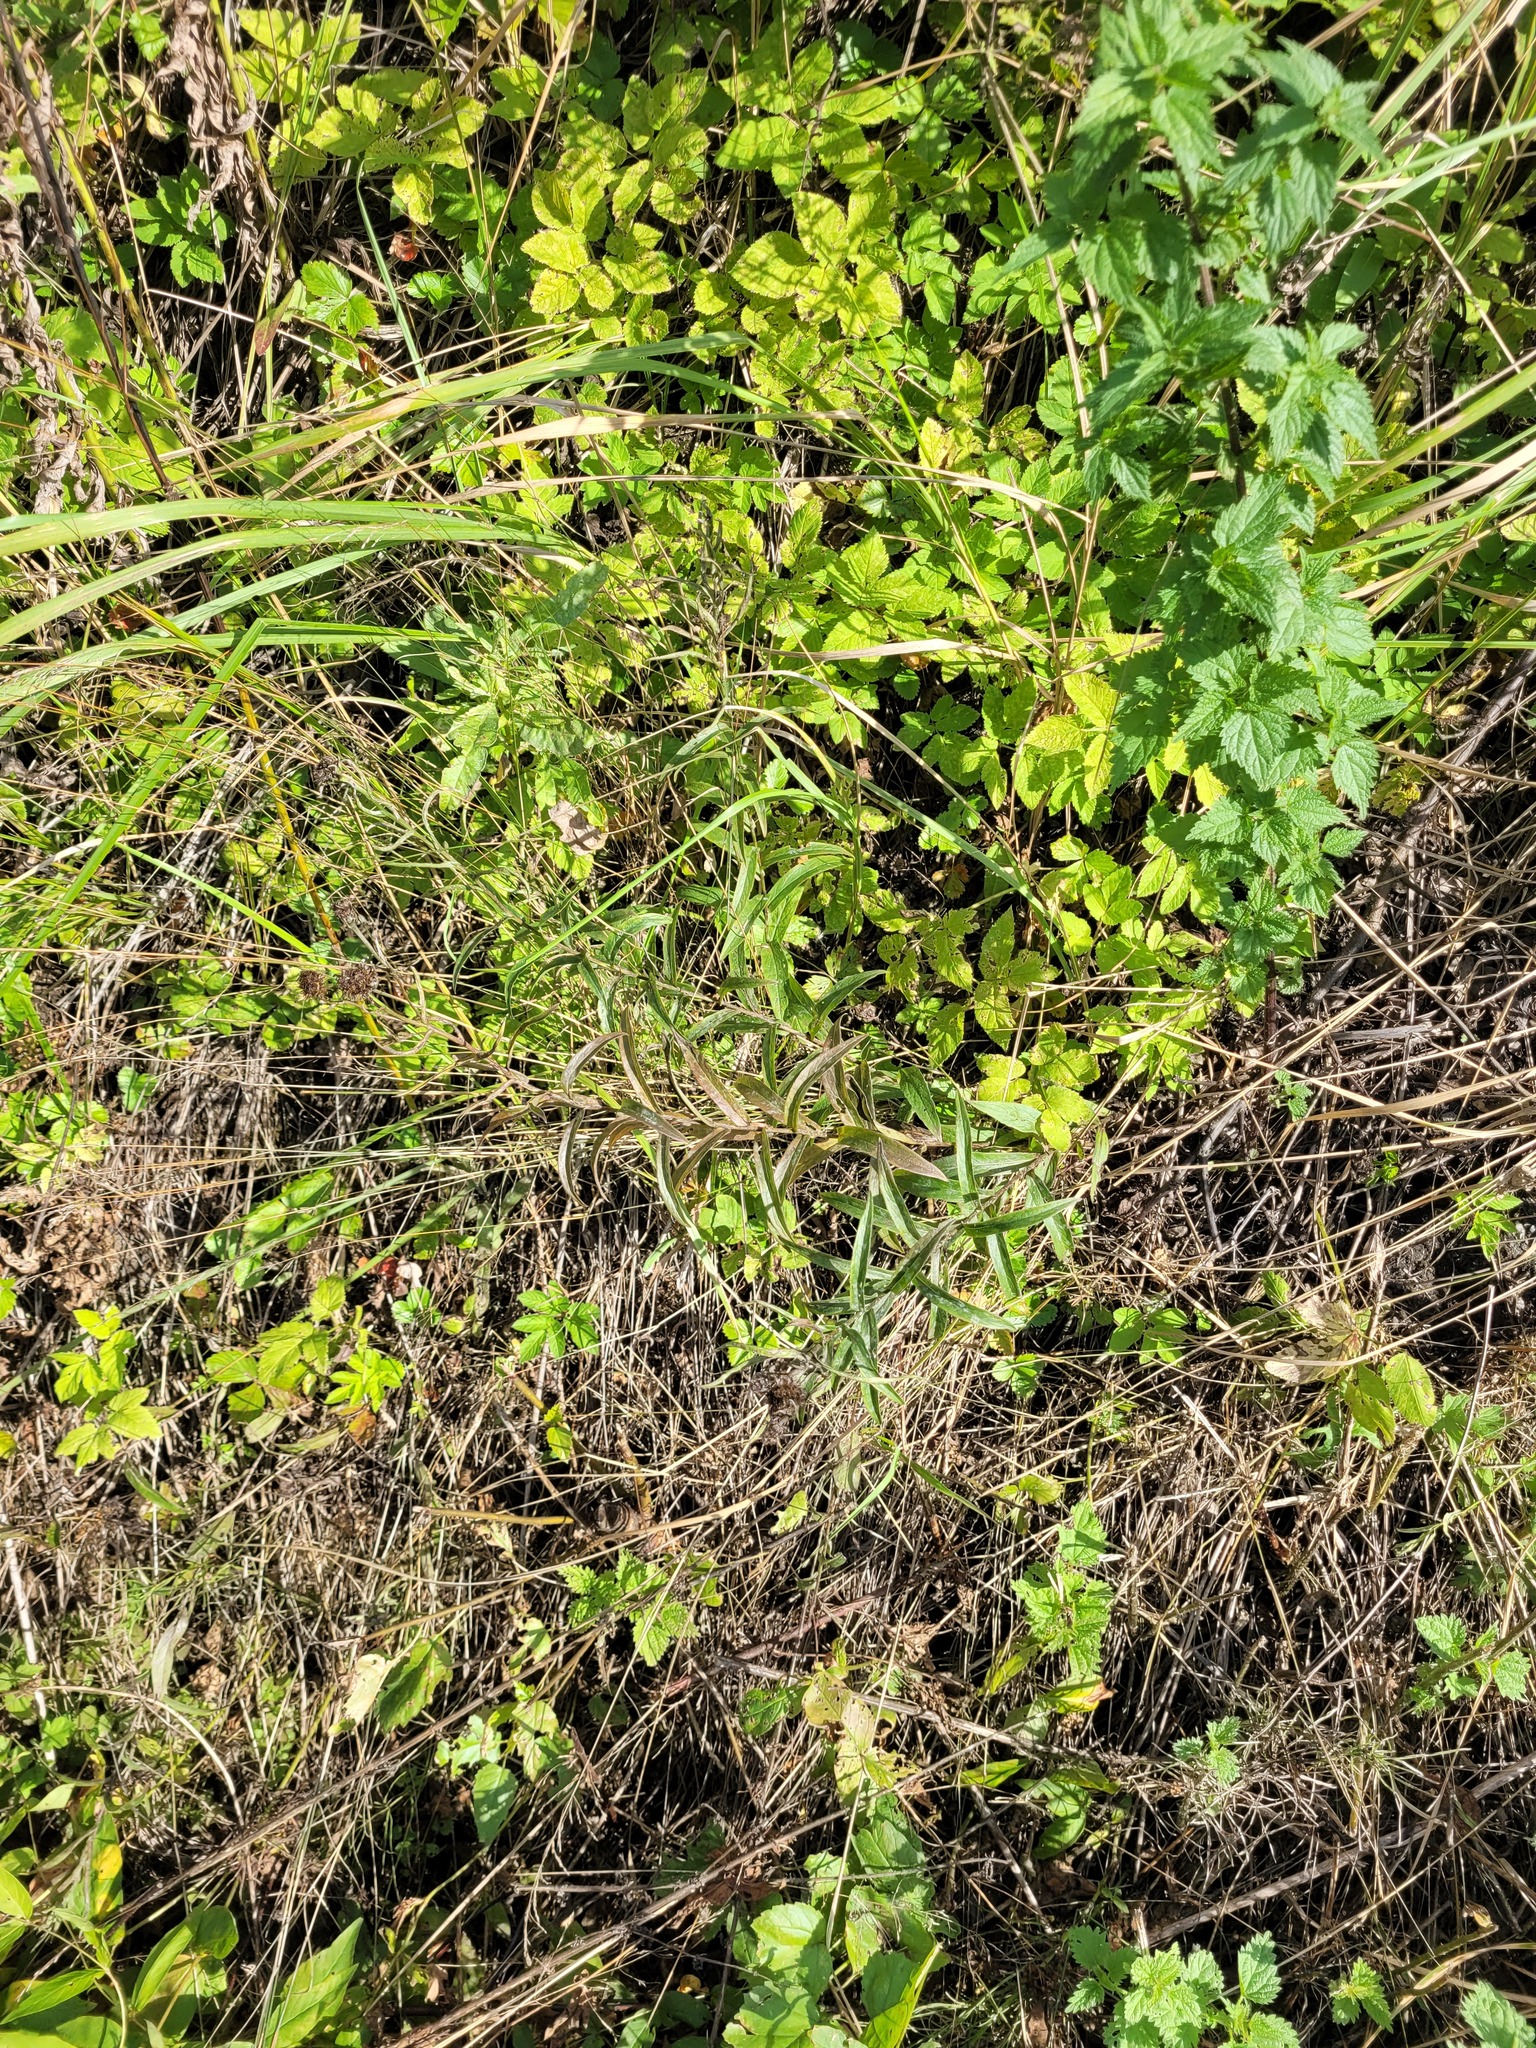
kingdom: Plantae
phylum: Tracheophyta
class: Magnoliopsida
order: Asterales
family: Asteraceae
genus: Pentanema
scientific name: Pentanema salicinum
